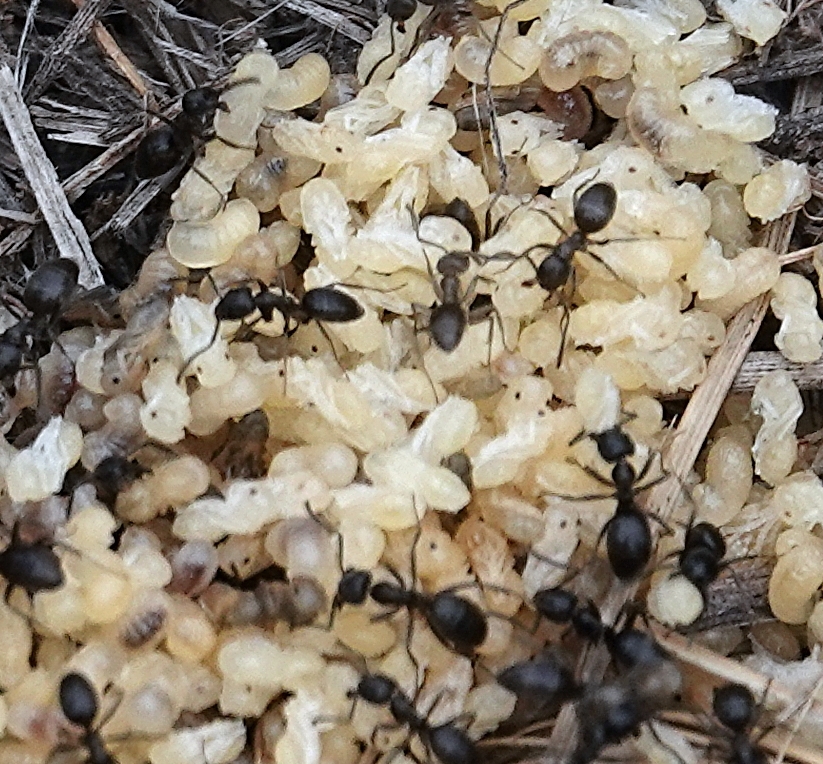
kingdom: Animalia
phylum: Arthropoda
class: Insecta
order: Hymenoptera
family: Formicidae
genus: Tapinoma
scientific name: Tapinoma sessile
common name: Odorous house ant
